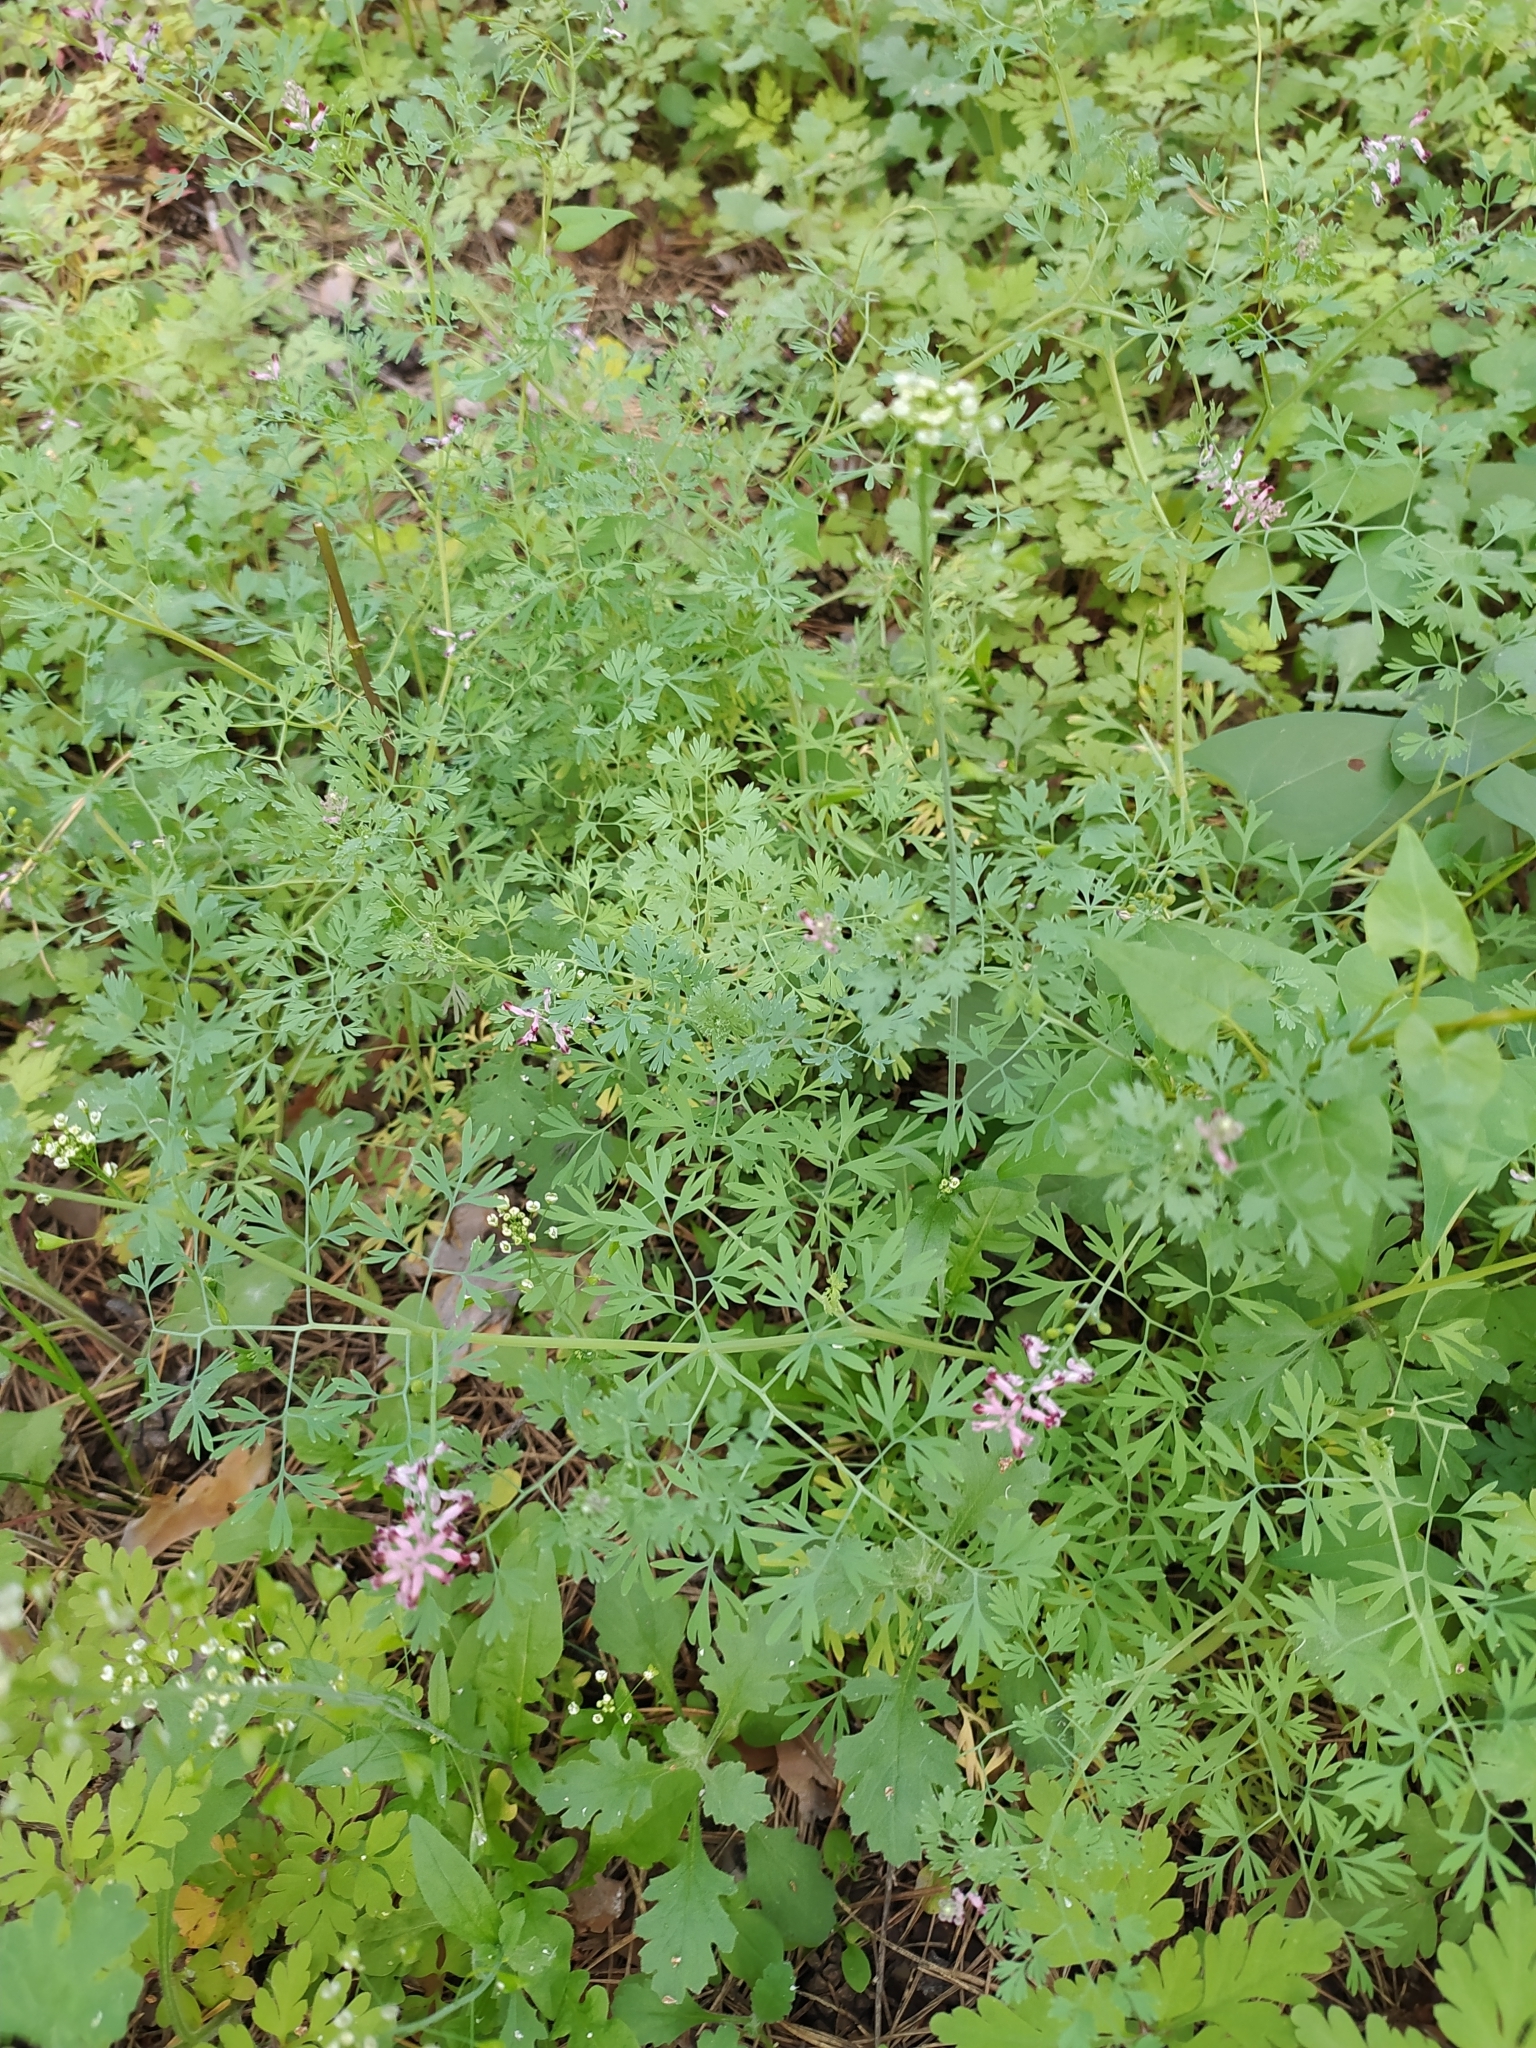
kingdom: Plantae
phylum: Tracheophyta
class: Magnoliopsida
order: Ranunculales
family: Papaveraceae
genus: Fumaria
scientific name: Fumaria officinalis
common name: Common fumitory
